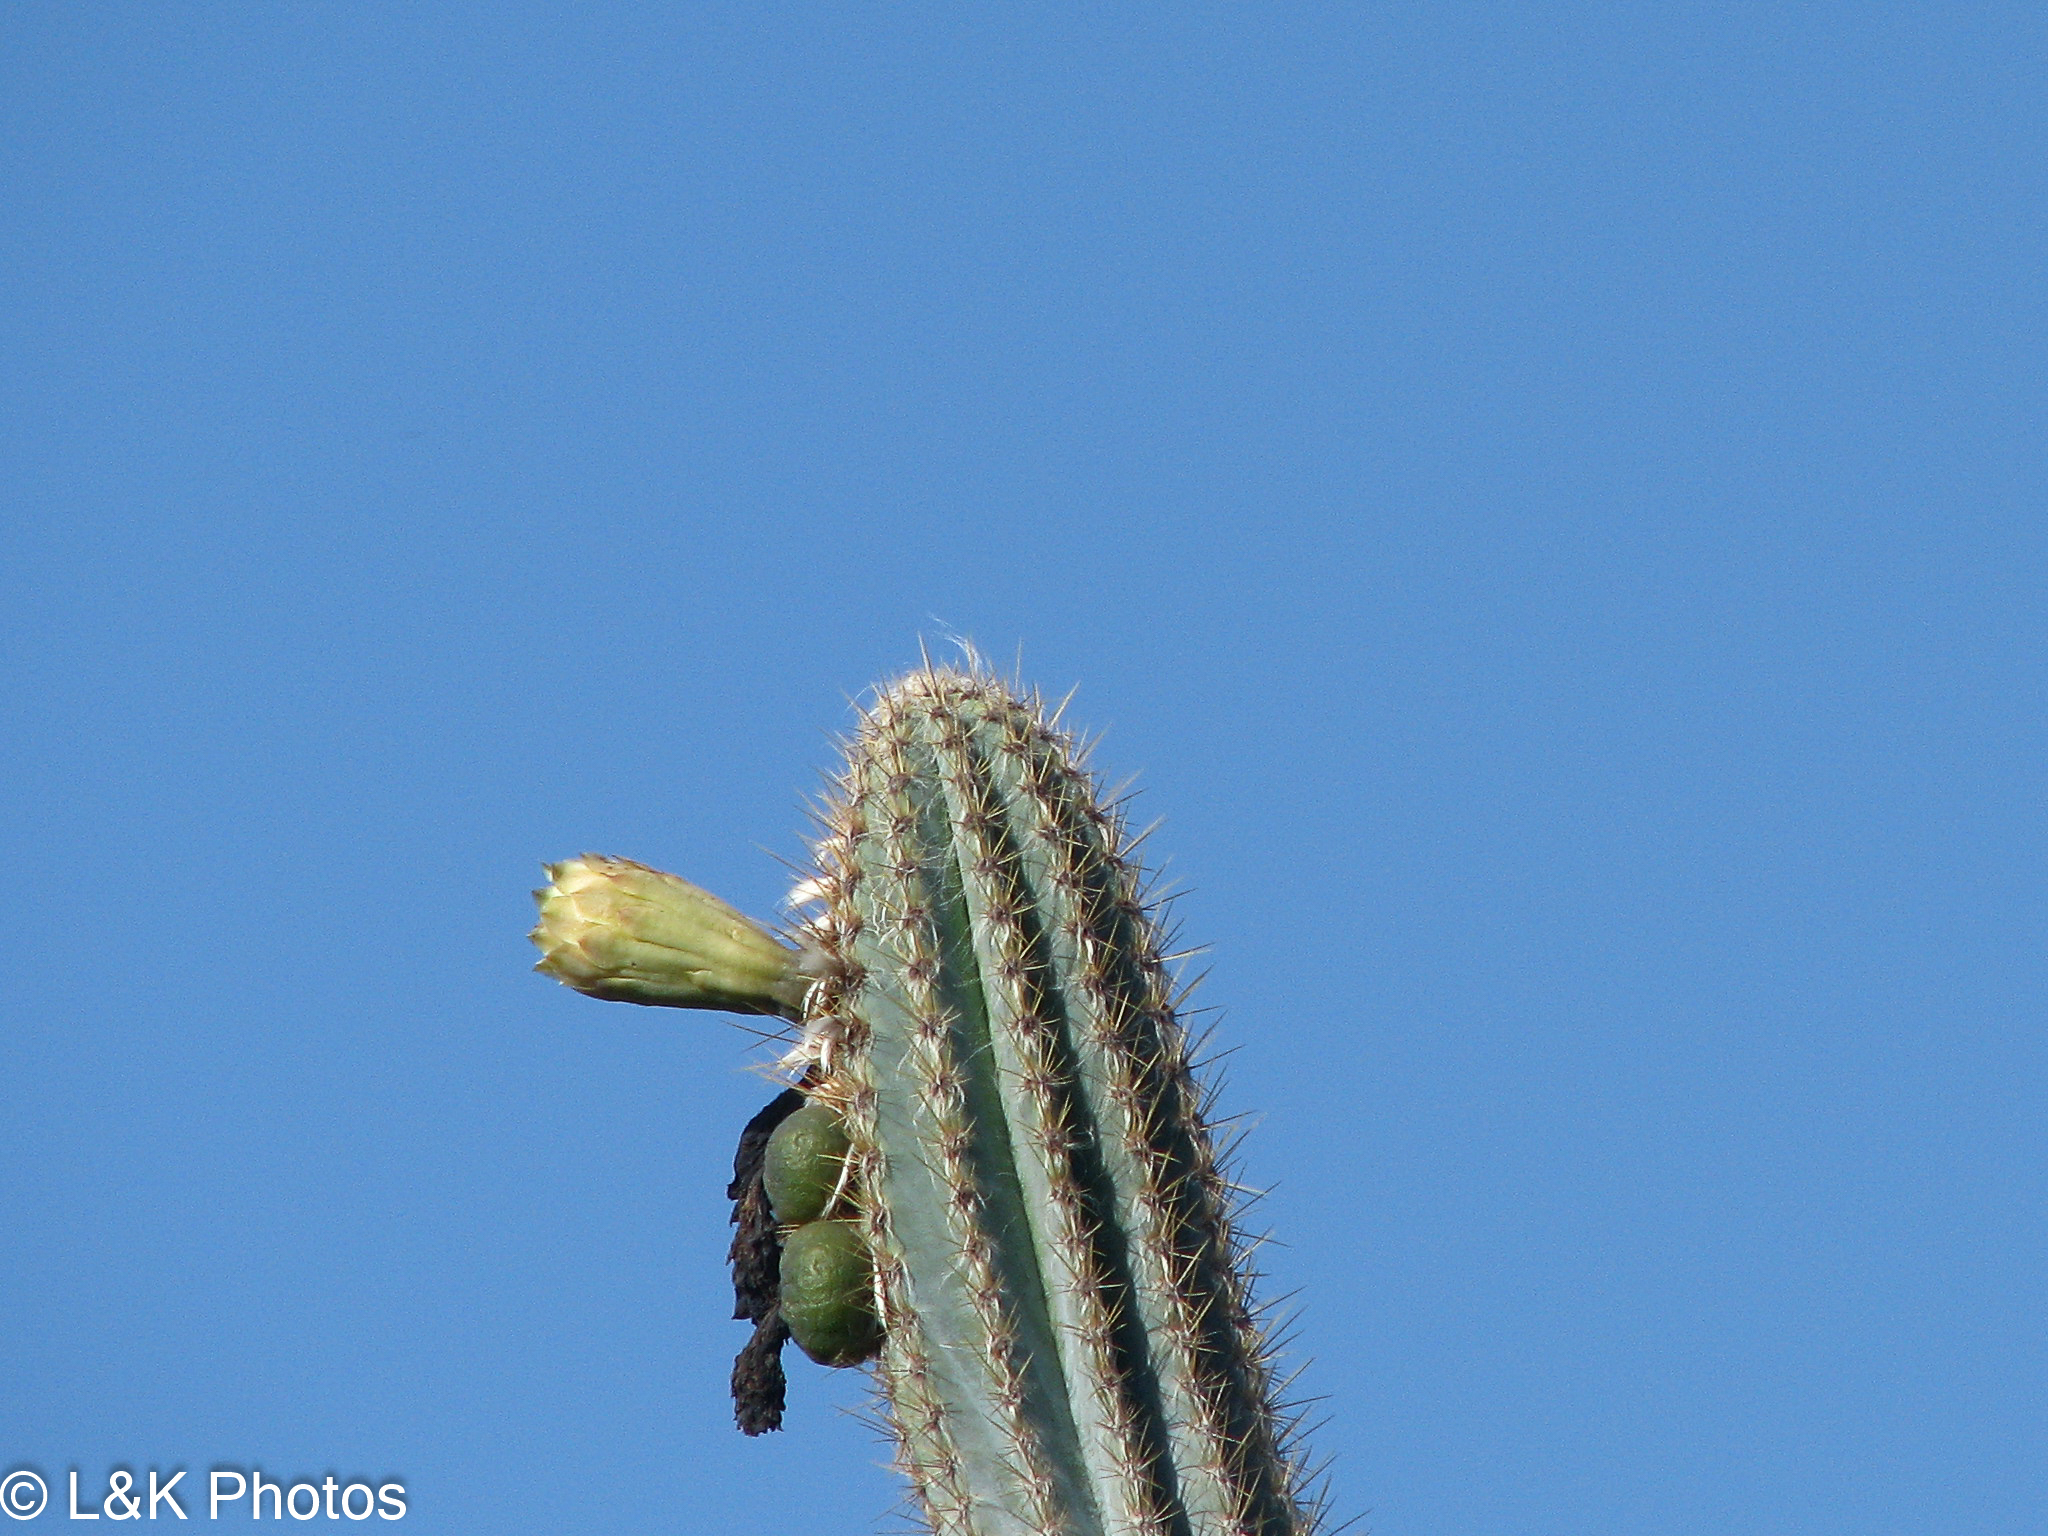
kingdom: Plantae
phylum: Tracheophyta
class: Magnoliopsida
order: Caryophyllales
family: Cactaceae
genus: Pilosocereus
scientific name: Pilosocereus armatus
